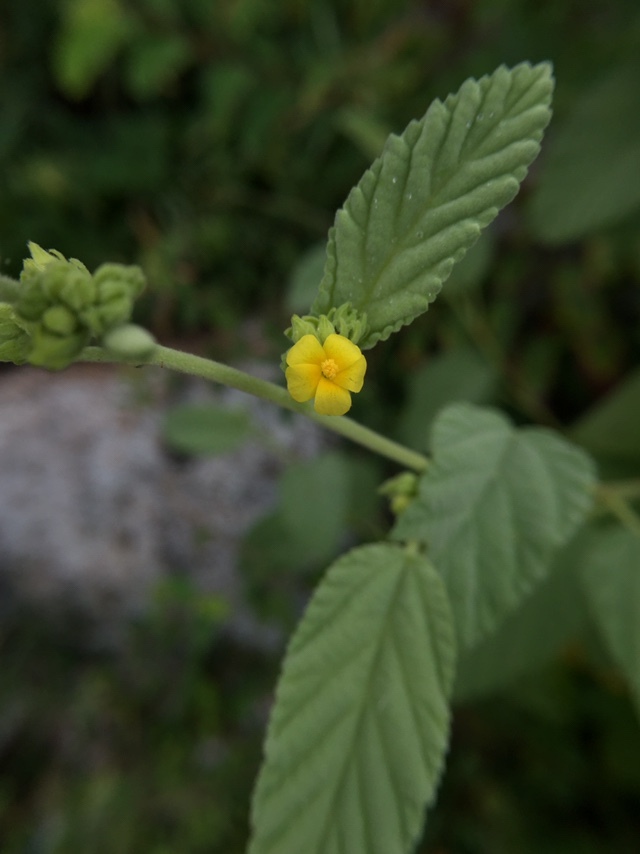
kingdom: Plantae
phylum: Tracheophyta
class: Magnoliopsida
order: Malvales
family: Malvaceae
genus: Waltheria
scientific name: Waltheria indica
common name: Leather-coat
